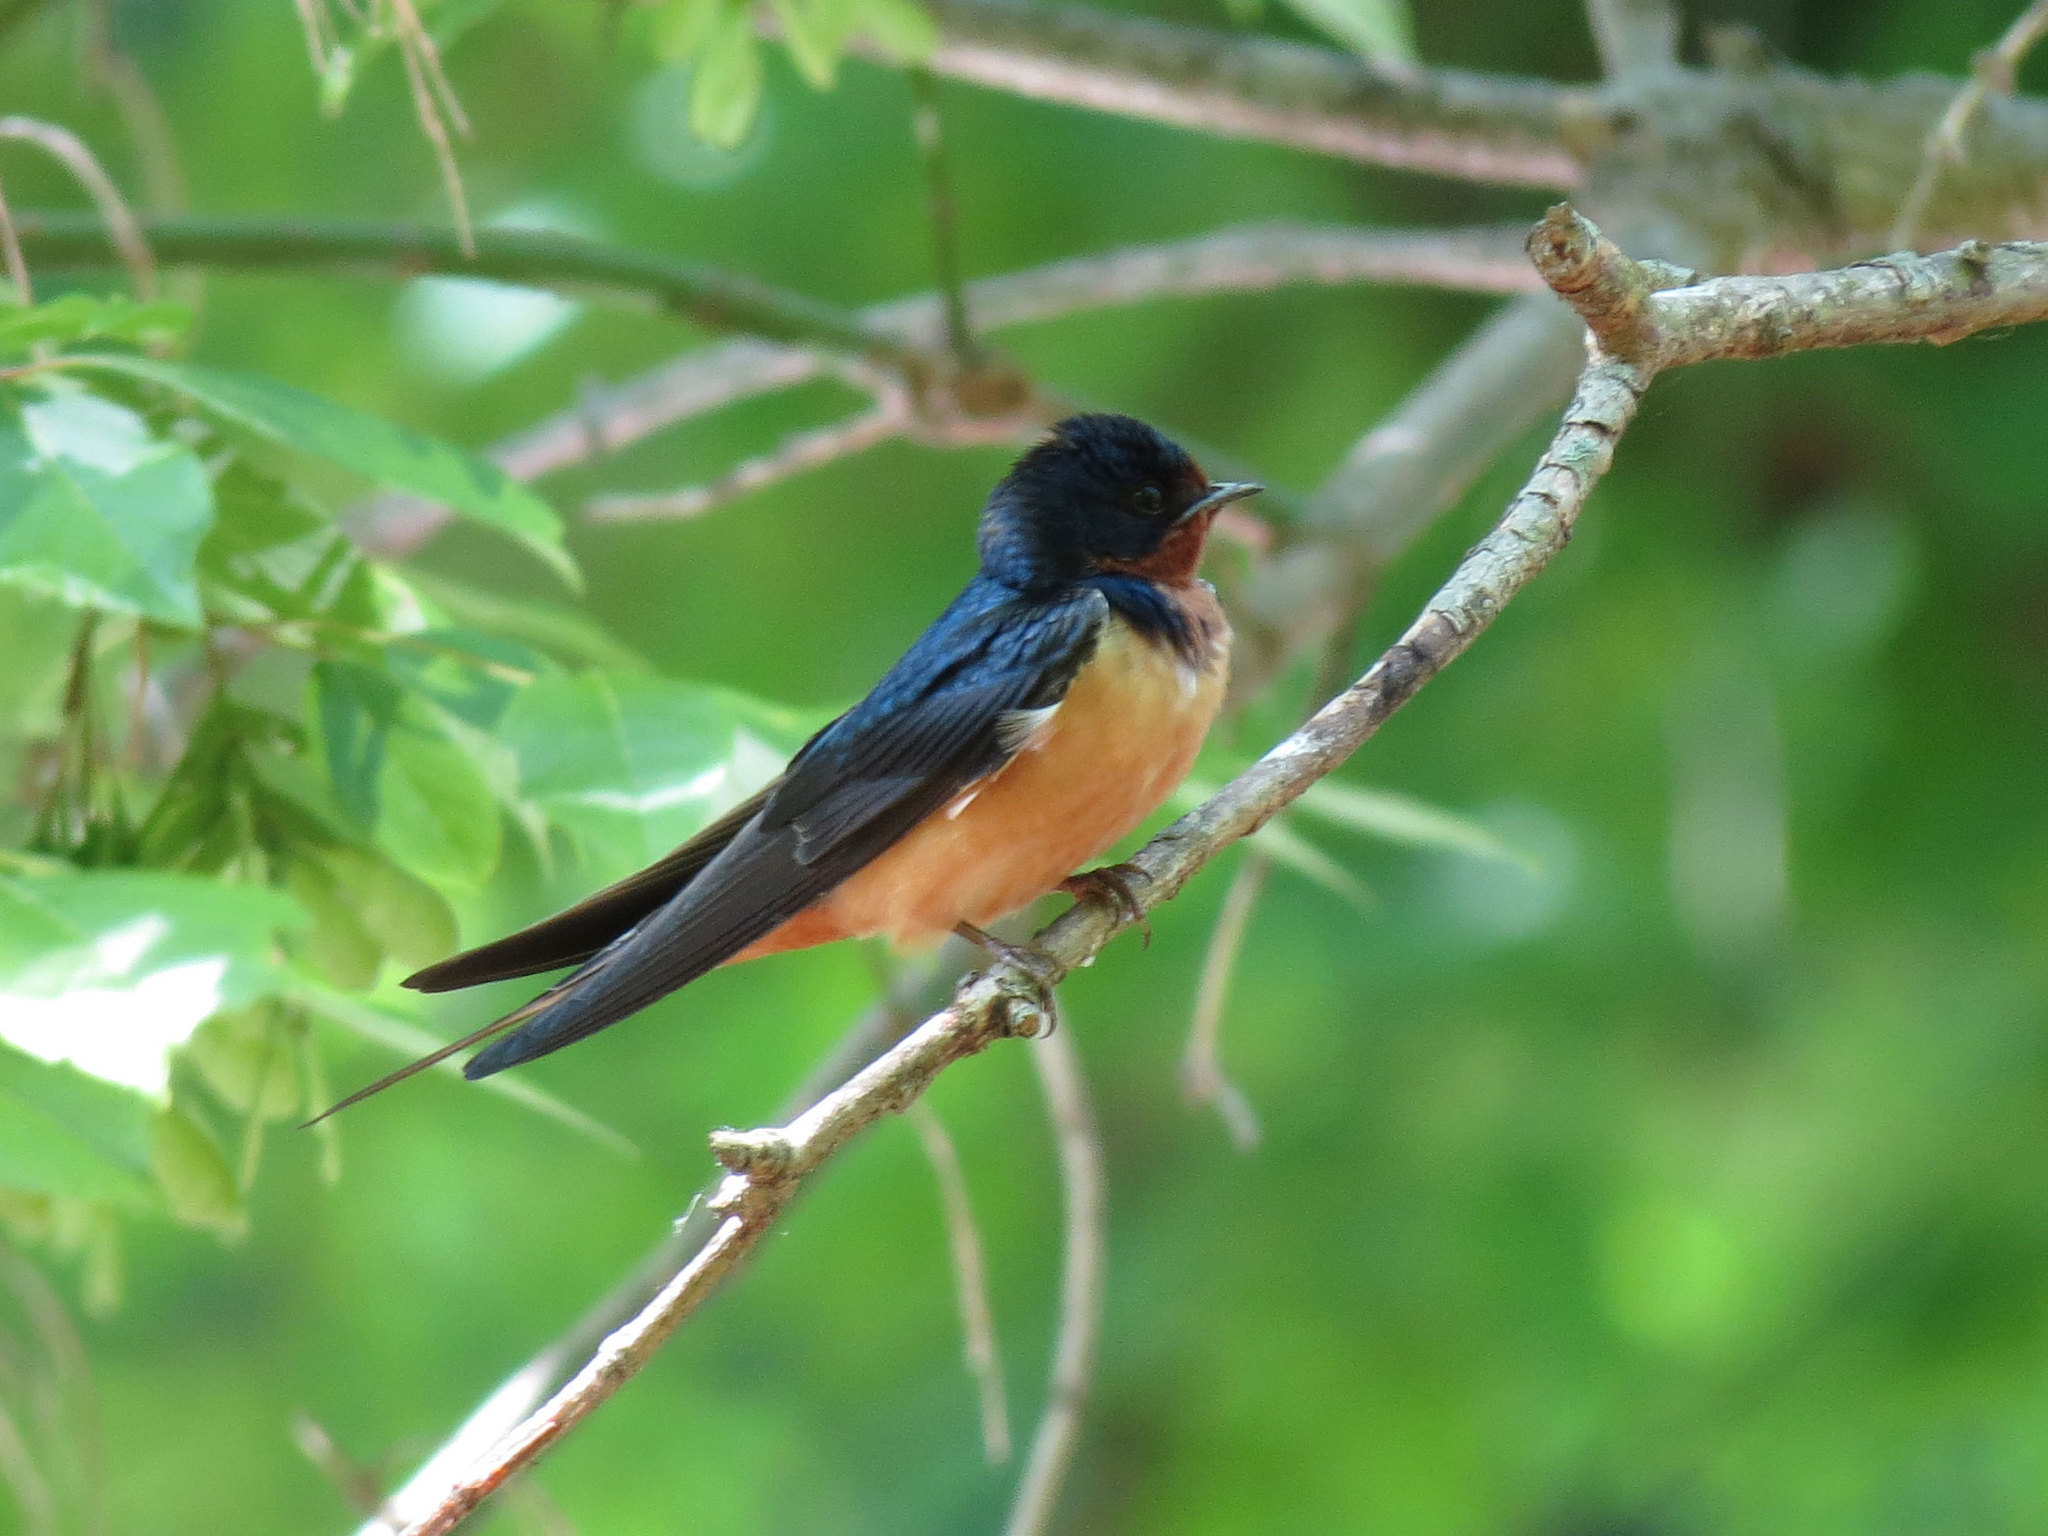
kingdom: Animalia
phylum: Chordata
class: Aves
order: Passeriformes
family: Hirundinidae
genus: Hirundo
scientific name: Hirundo rustica
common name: Barn swallow
